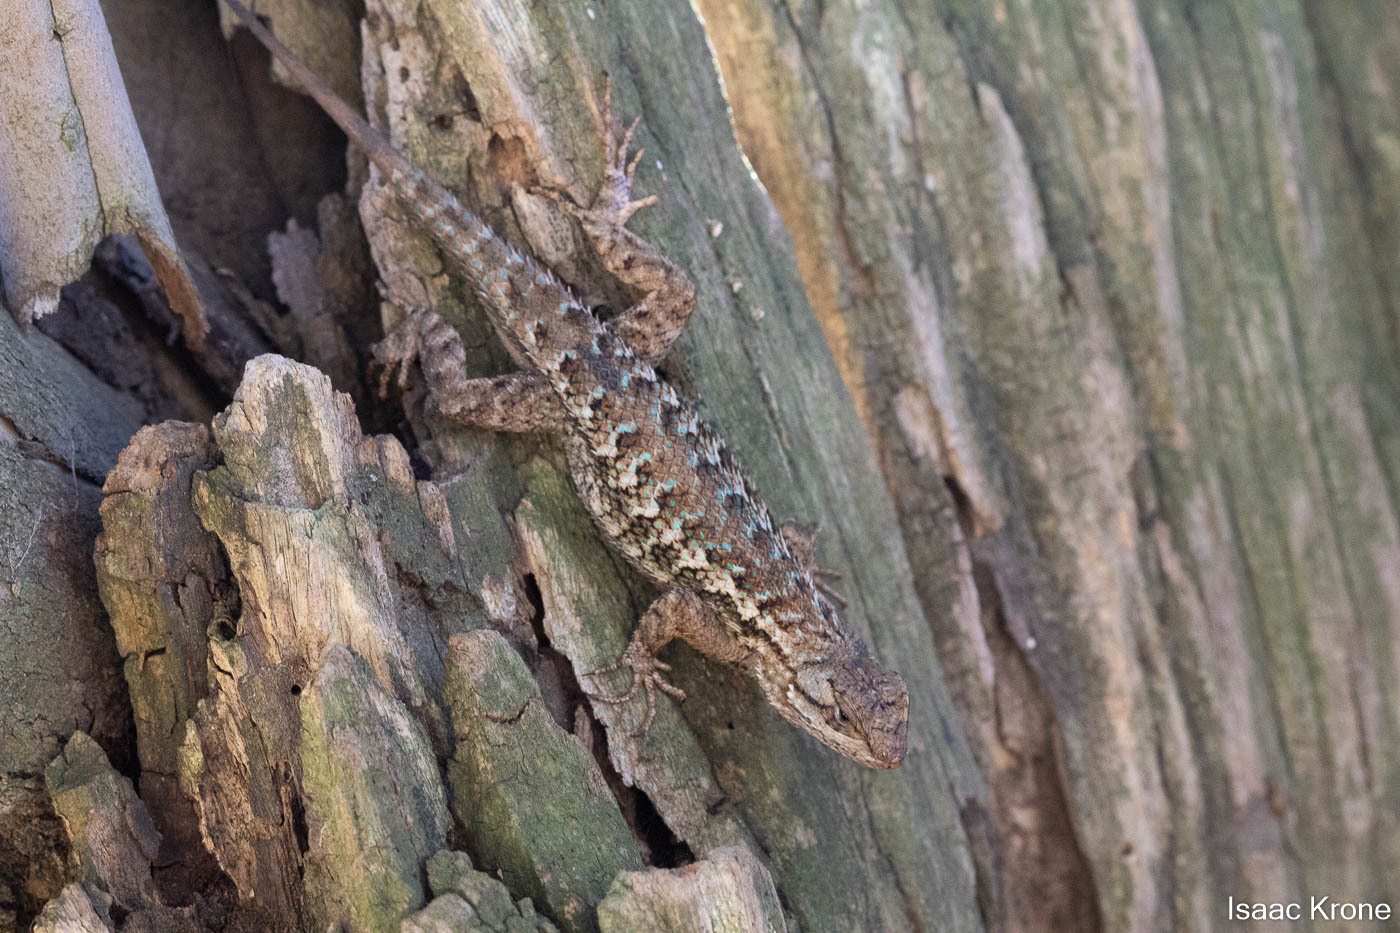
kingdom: Animalia
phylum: Chordata
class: Squamata
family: Phrynosomatidae
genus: Sceloporus
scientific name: Sceloporus occidentalis
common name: Western fence lizard
